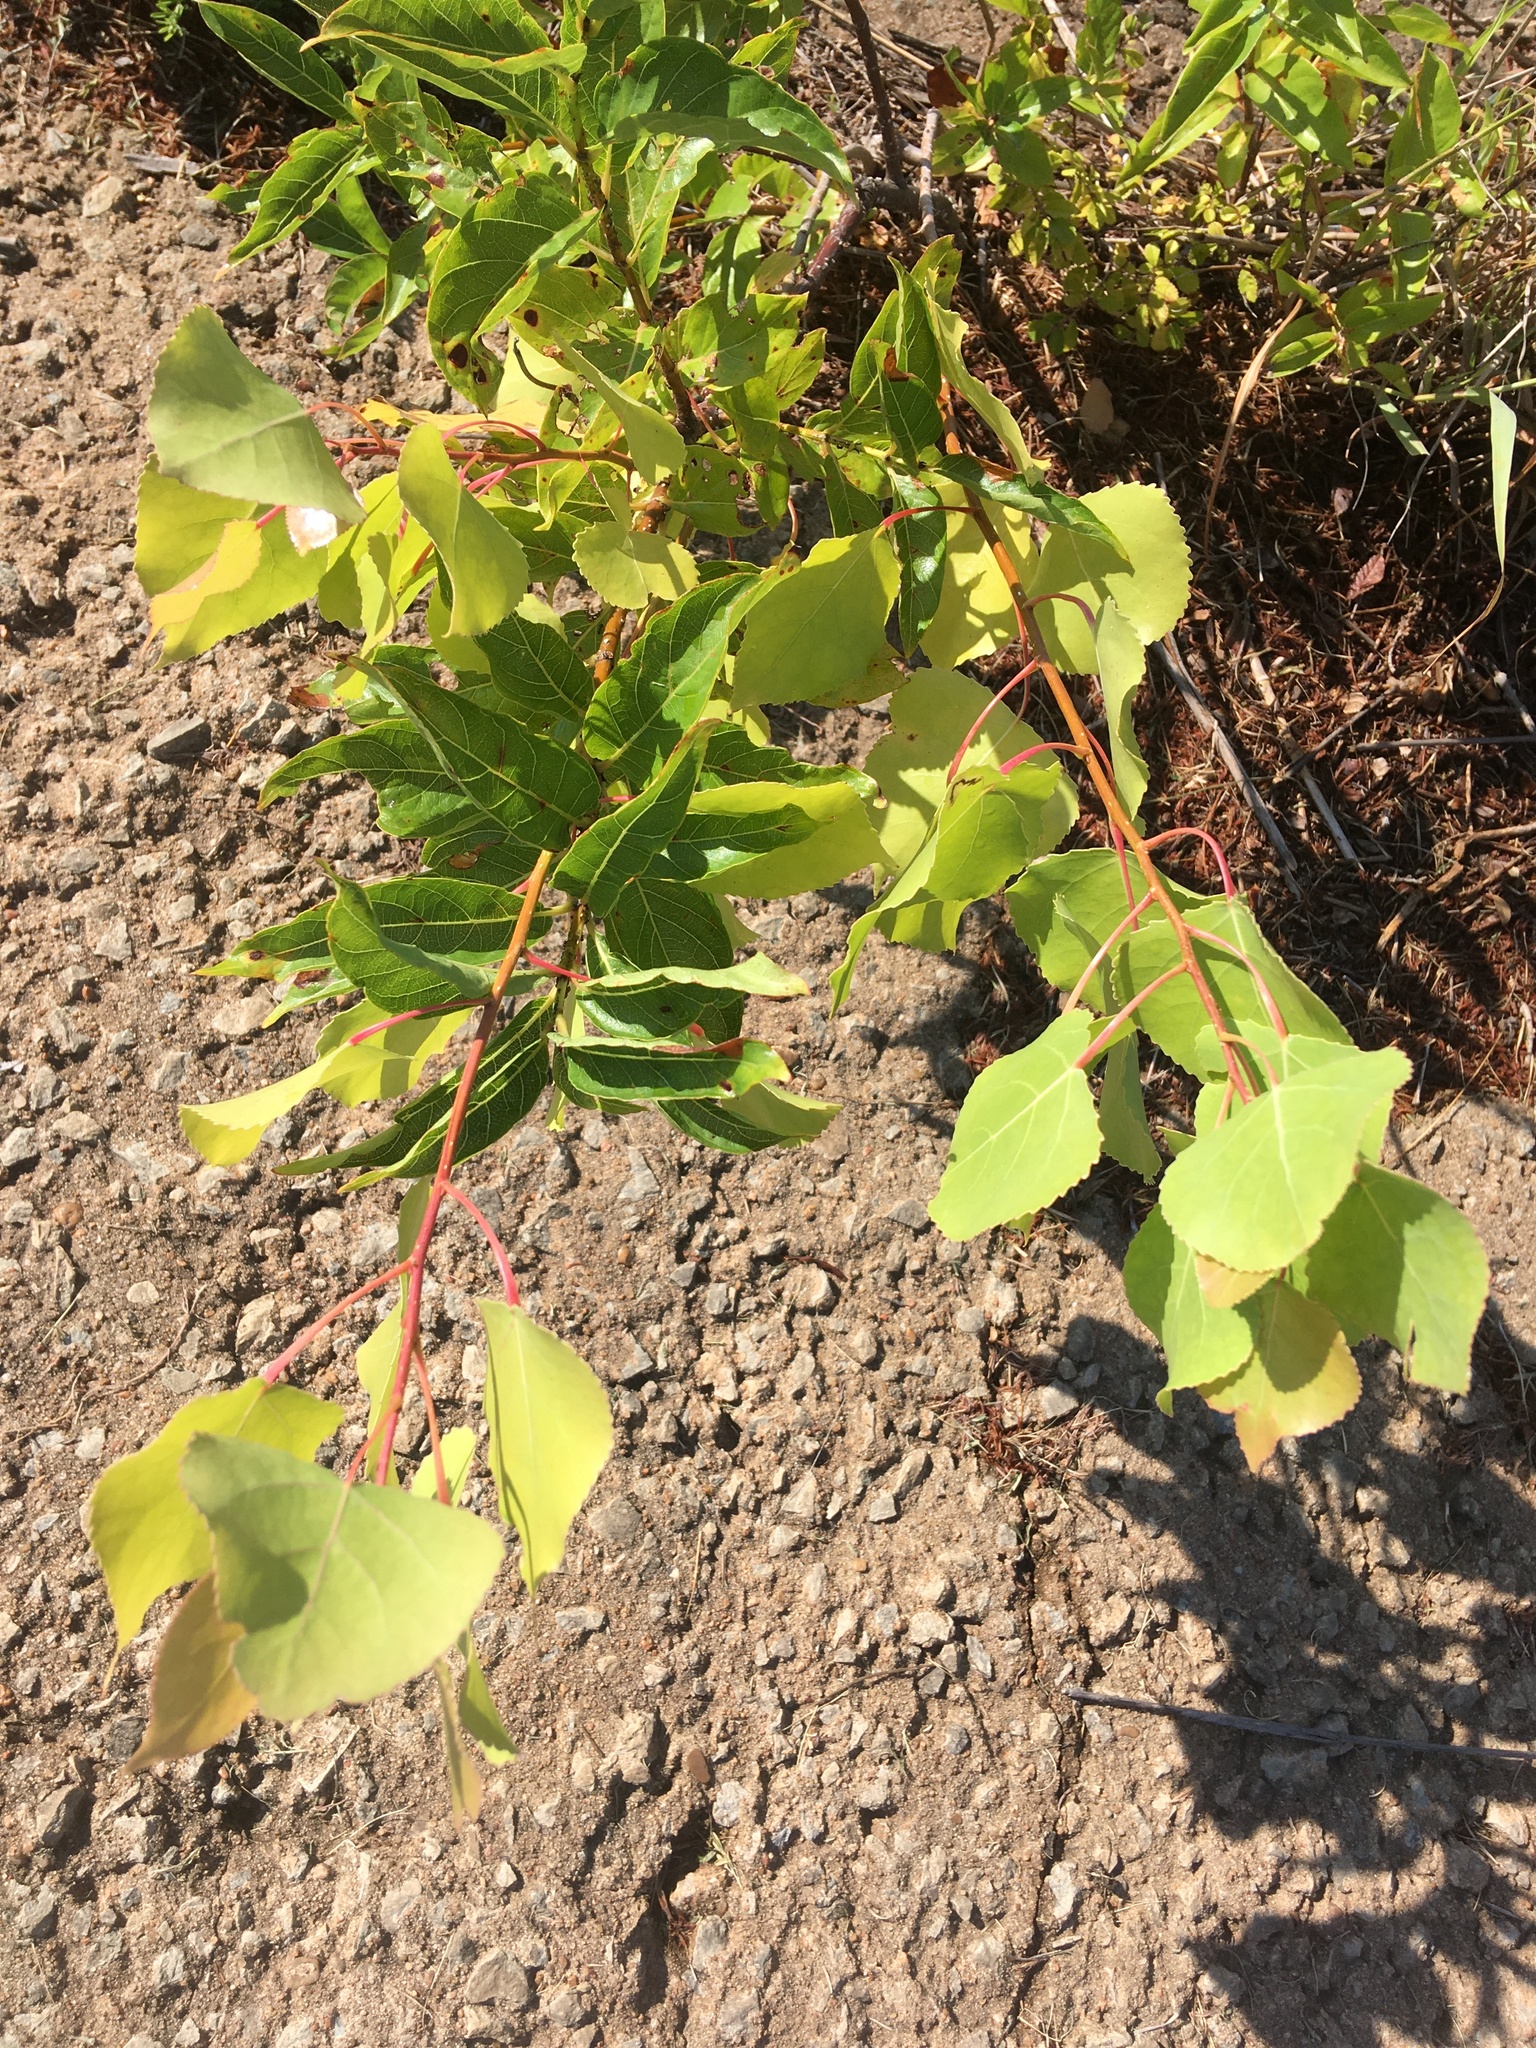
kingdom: Plantae
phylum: Tracheophyta
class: Magnoliopsida
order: Malpighiales
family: Salicaceae
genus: Populus
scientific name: Populus deltoides
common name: Eastern cottonwood
